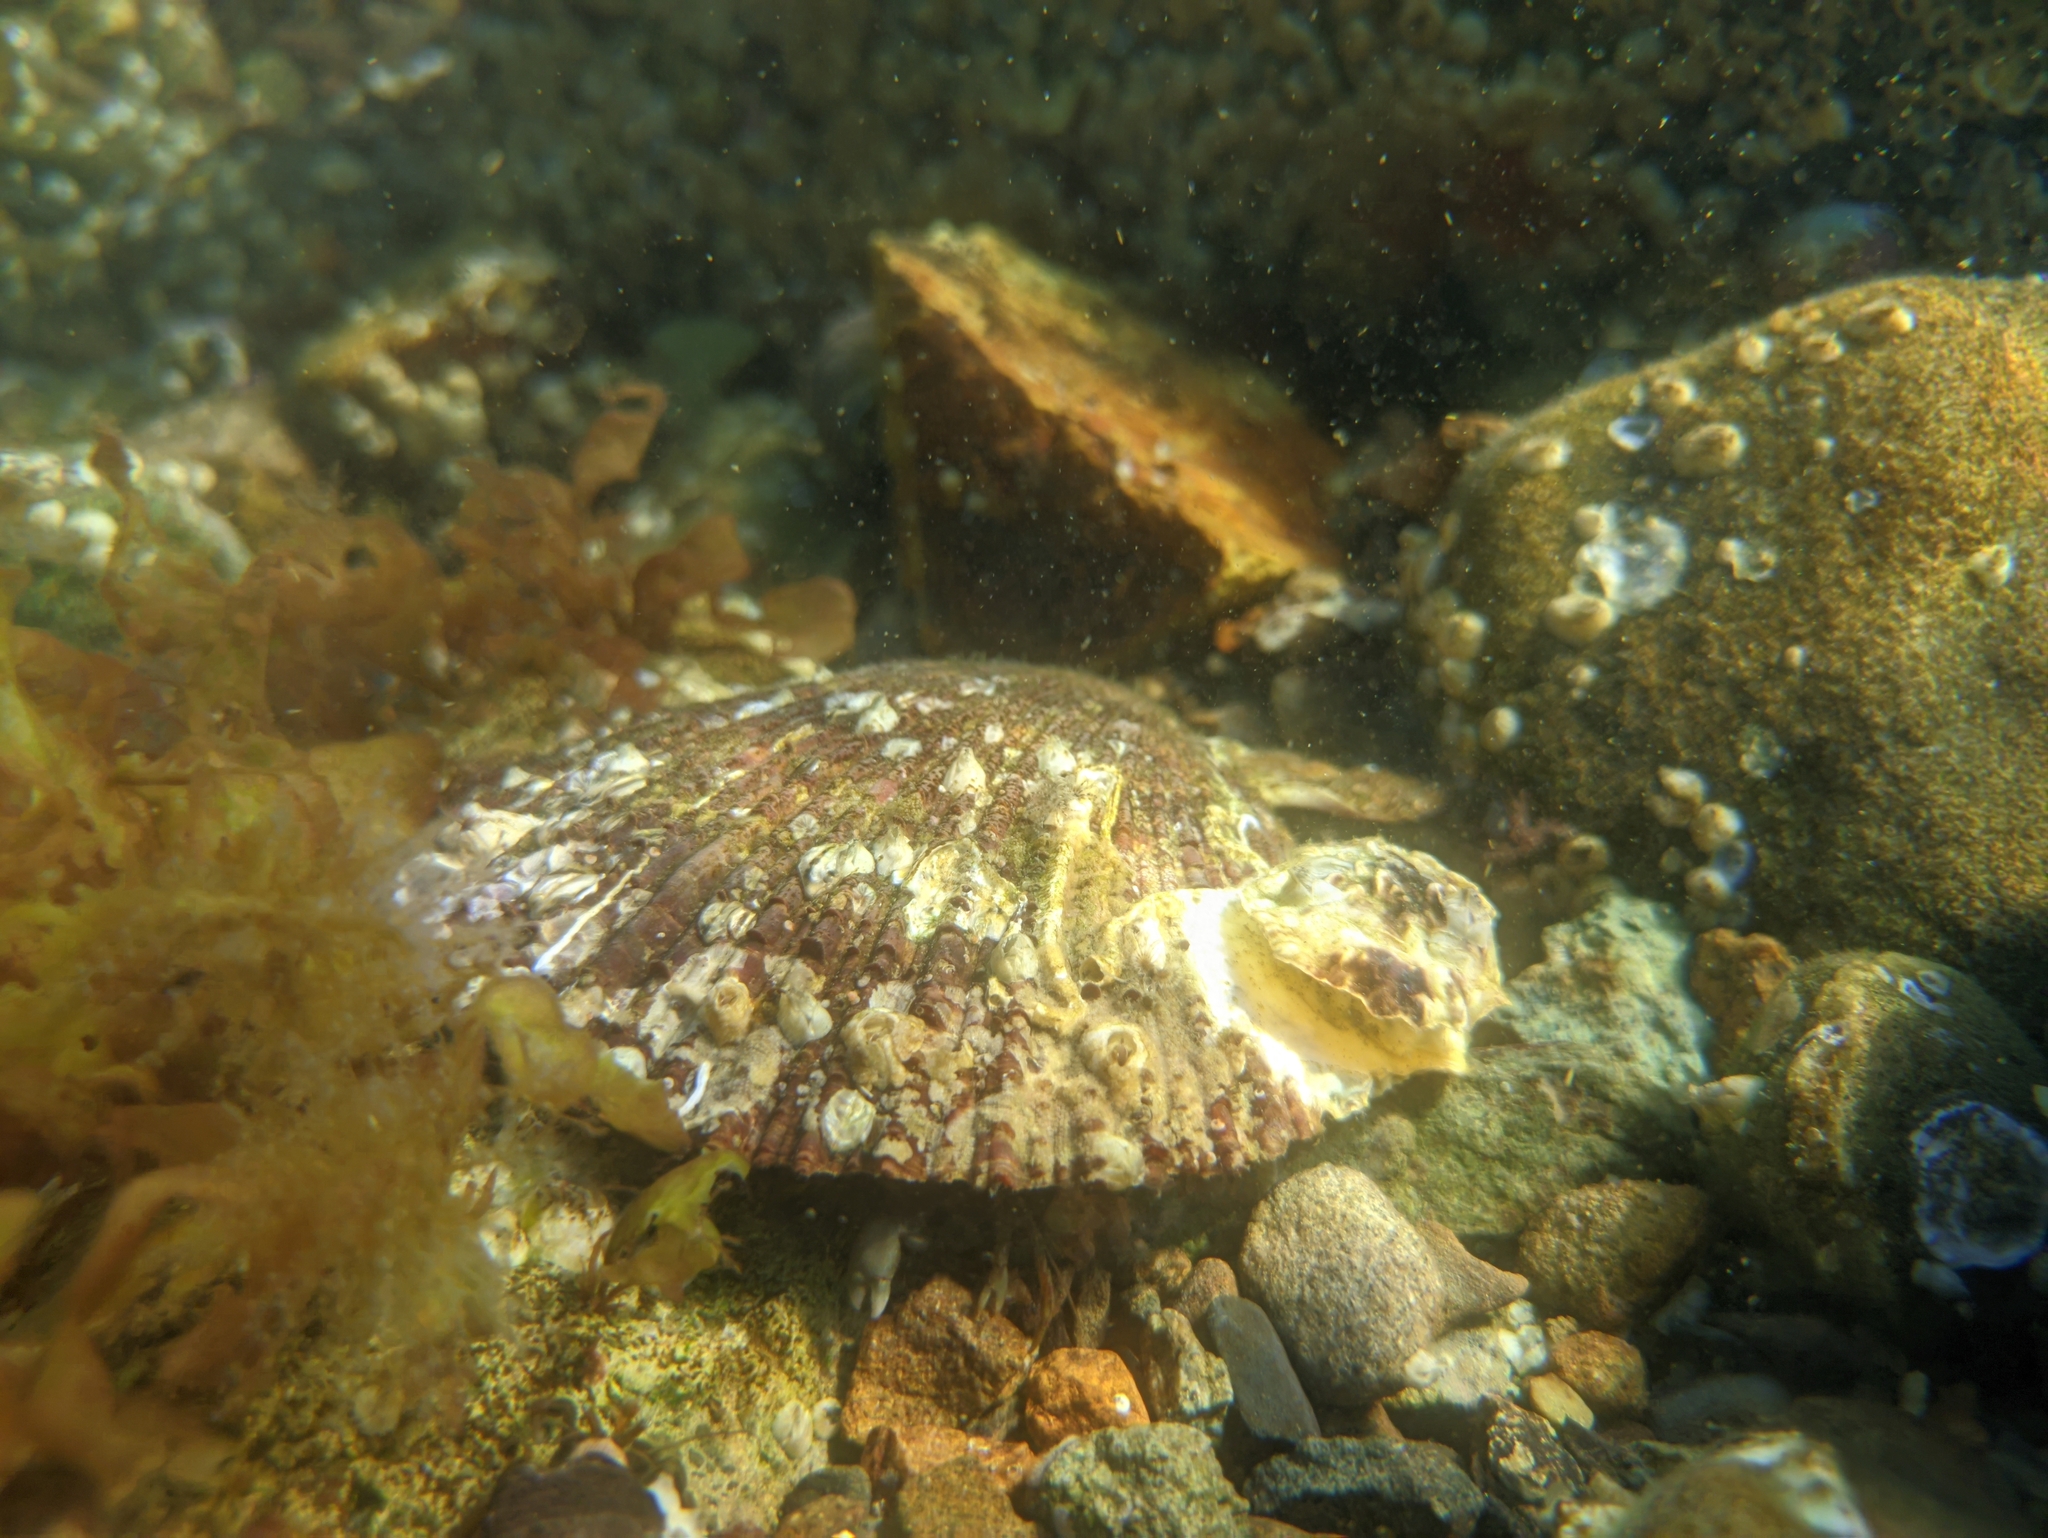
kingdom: Animalia
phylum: Mollusca
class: Bivalvia
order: Pectinida
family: Pectinidae
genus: Chlamys
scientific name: Chlamys farreri
